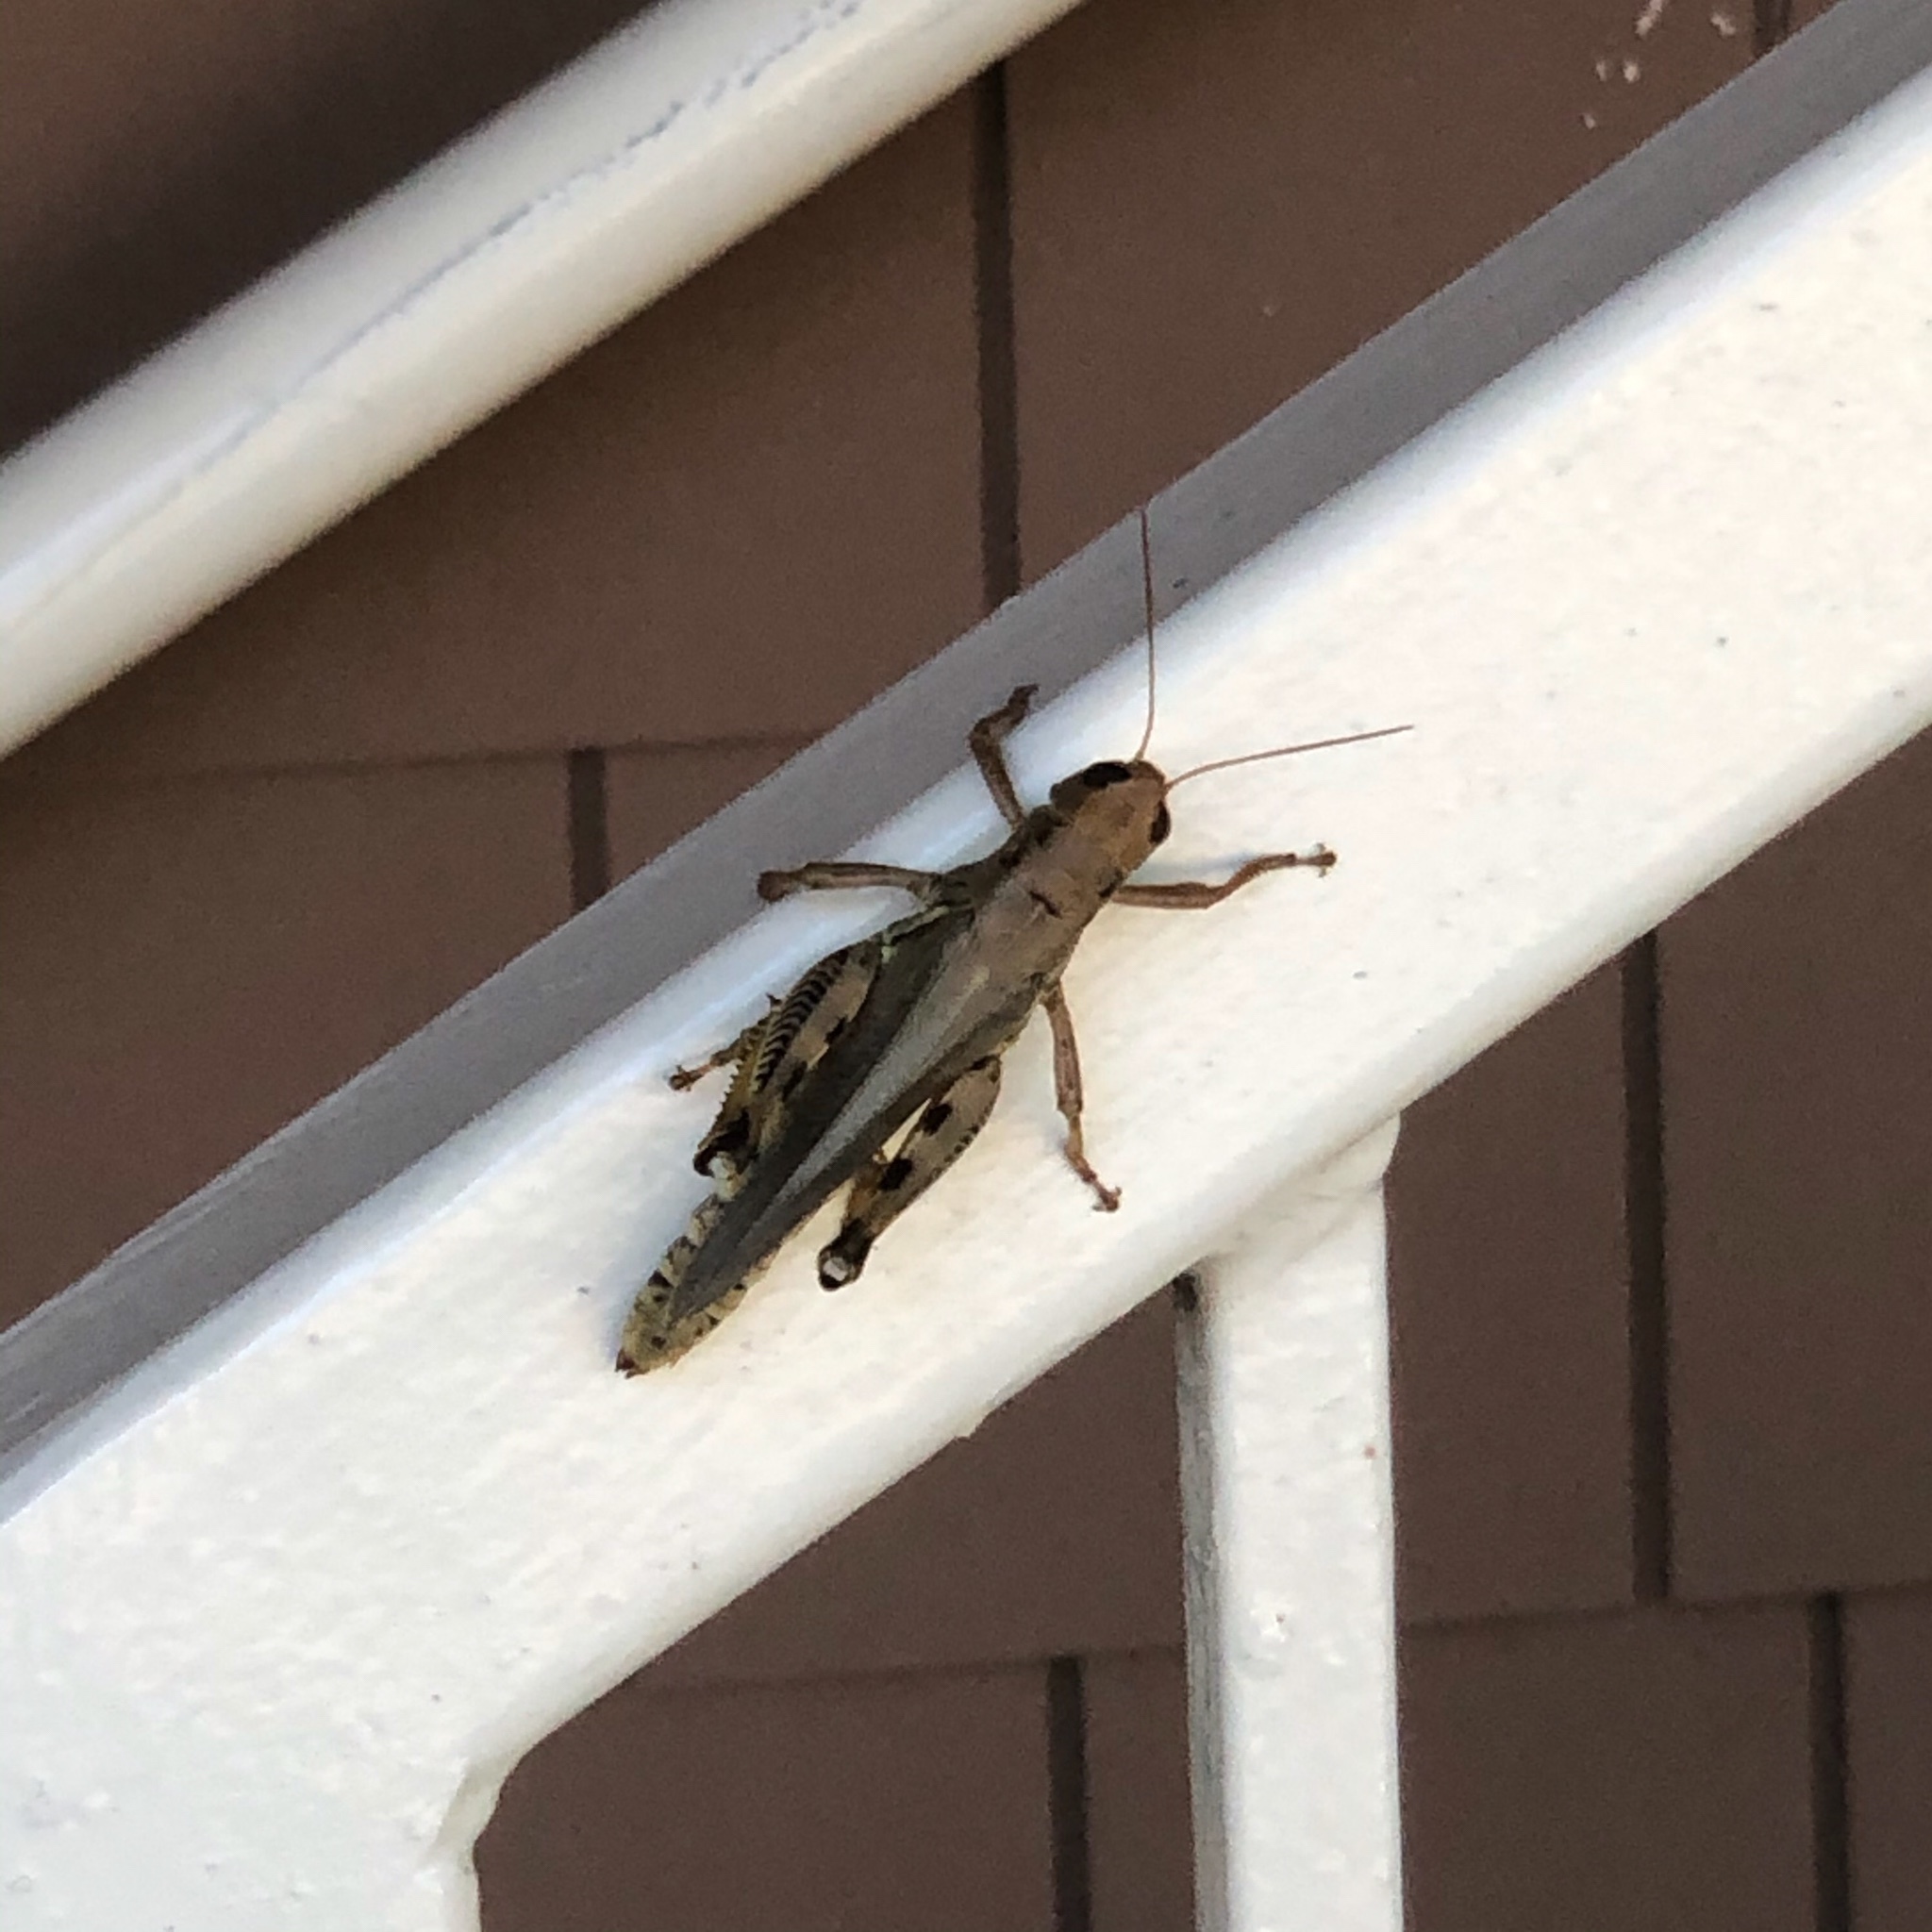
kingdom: Animalia
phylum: Arthropoda
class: Insecta
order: Orthoptera
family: Acrididae
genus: Melanoplus
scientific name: Melanoplus differentialis
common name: Differential grasshopper
